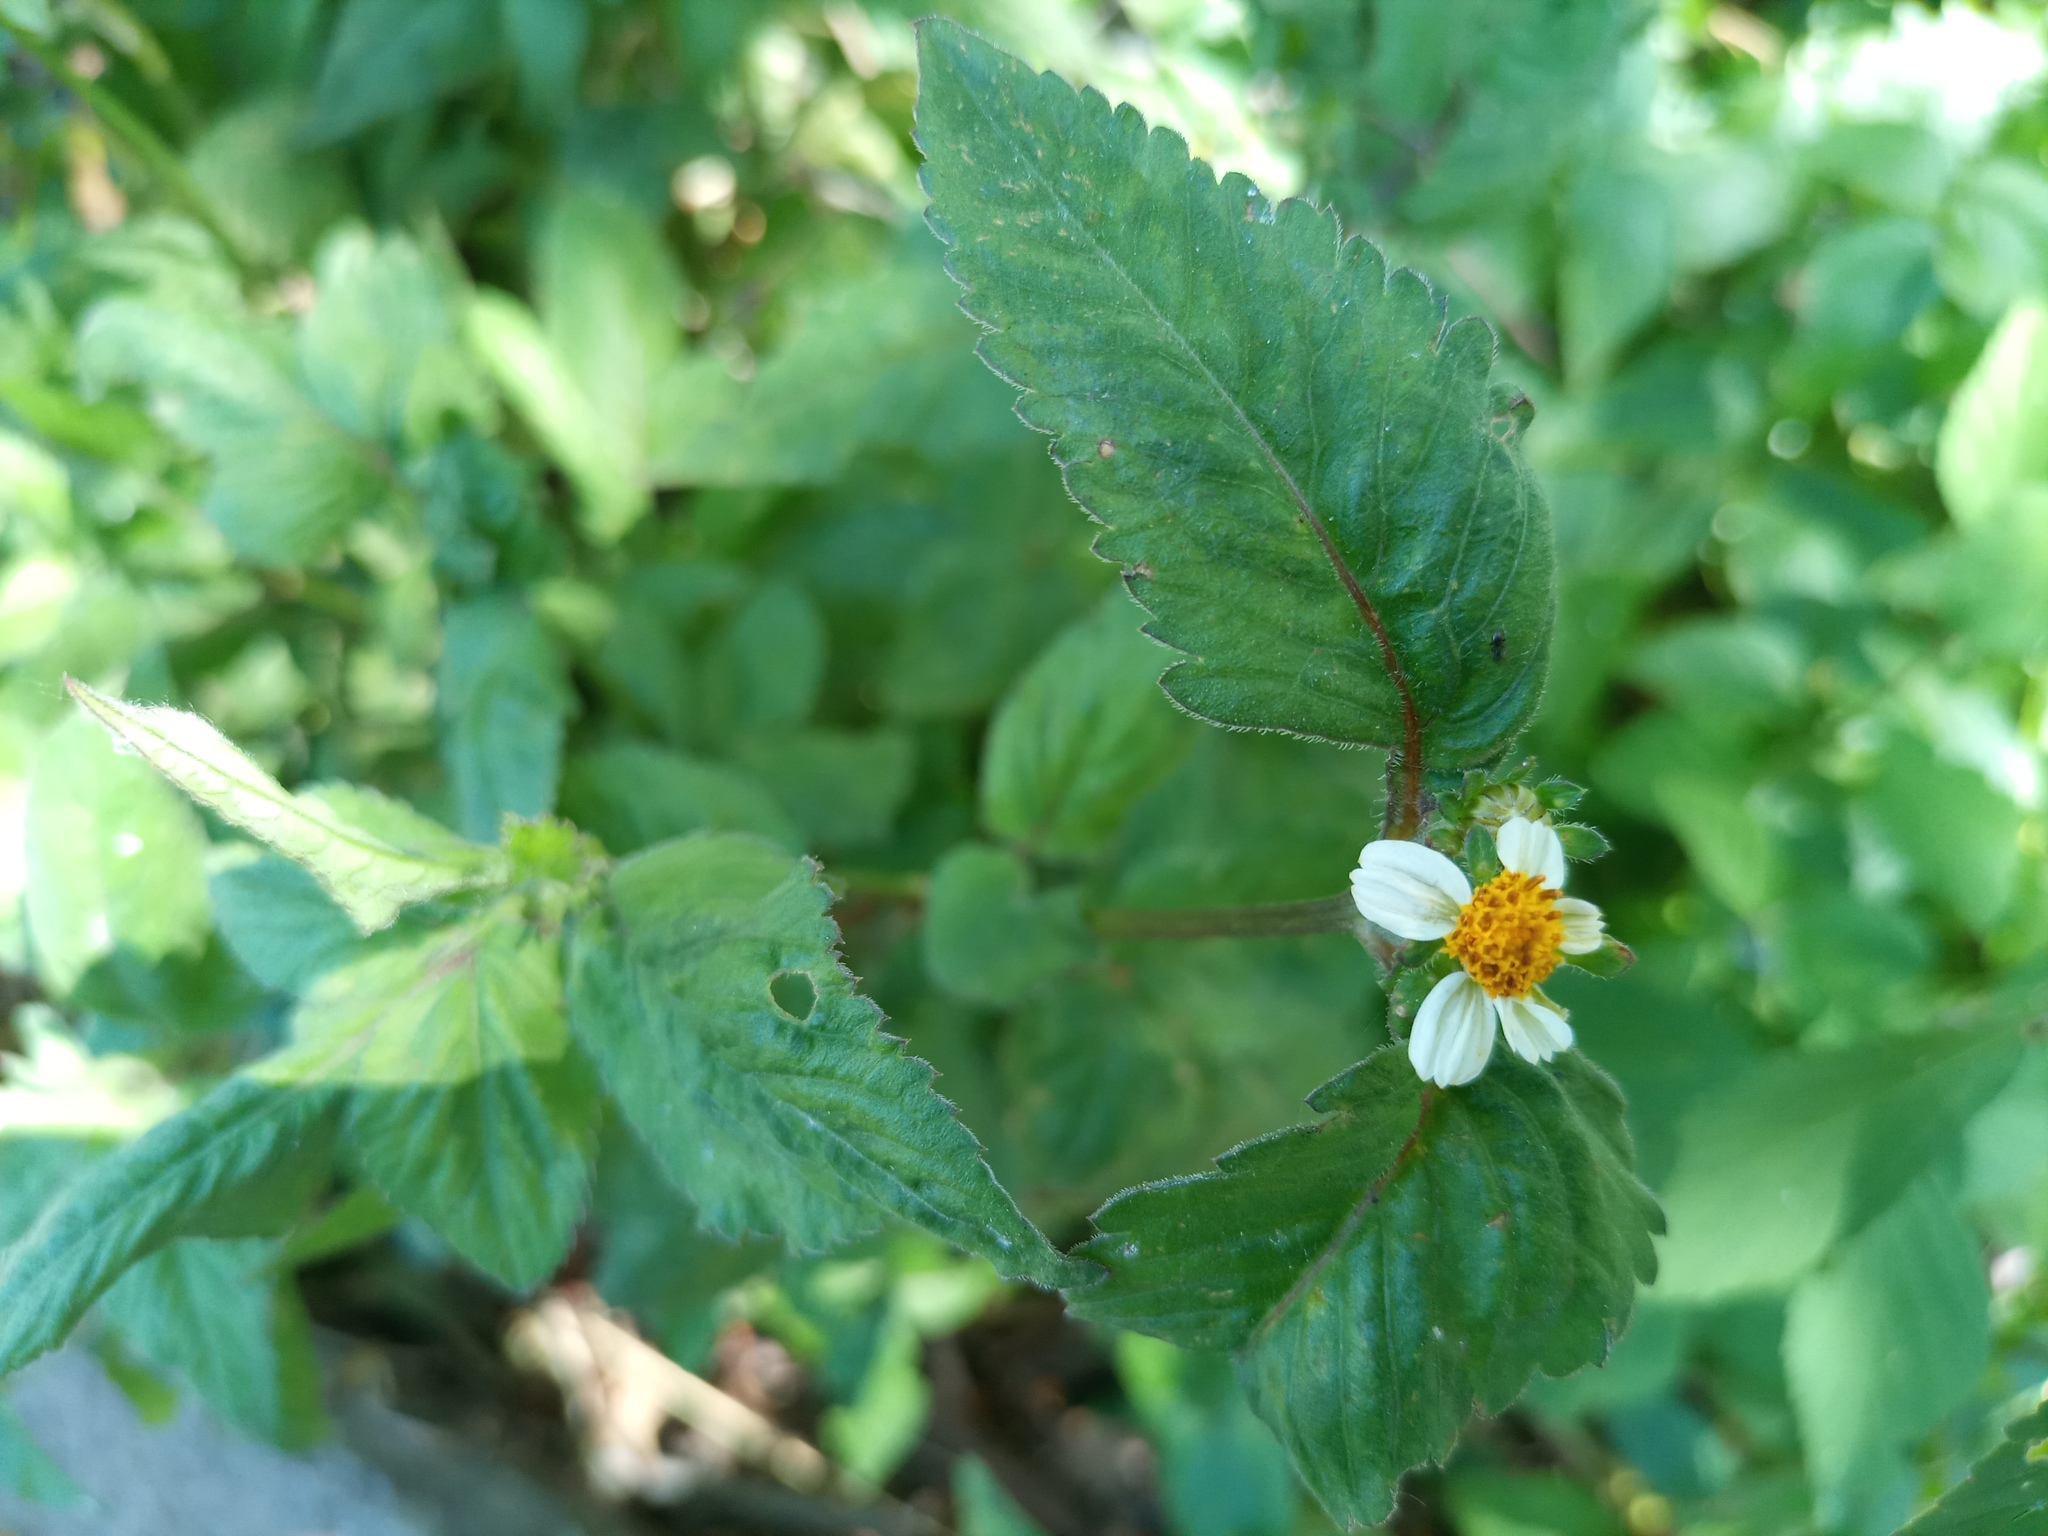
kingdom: Plantae
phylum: Tracheophyta
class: Magnoliopsida
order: Asterales
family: Asteraceae
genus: Bidens
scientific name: Bidens pilosa
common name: Black-jack
